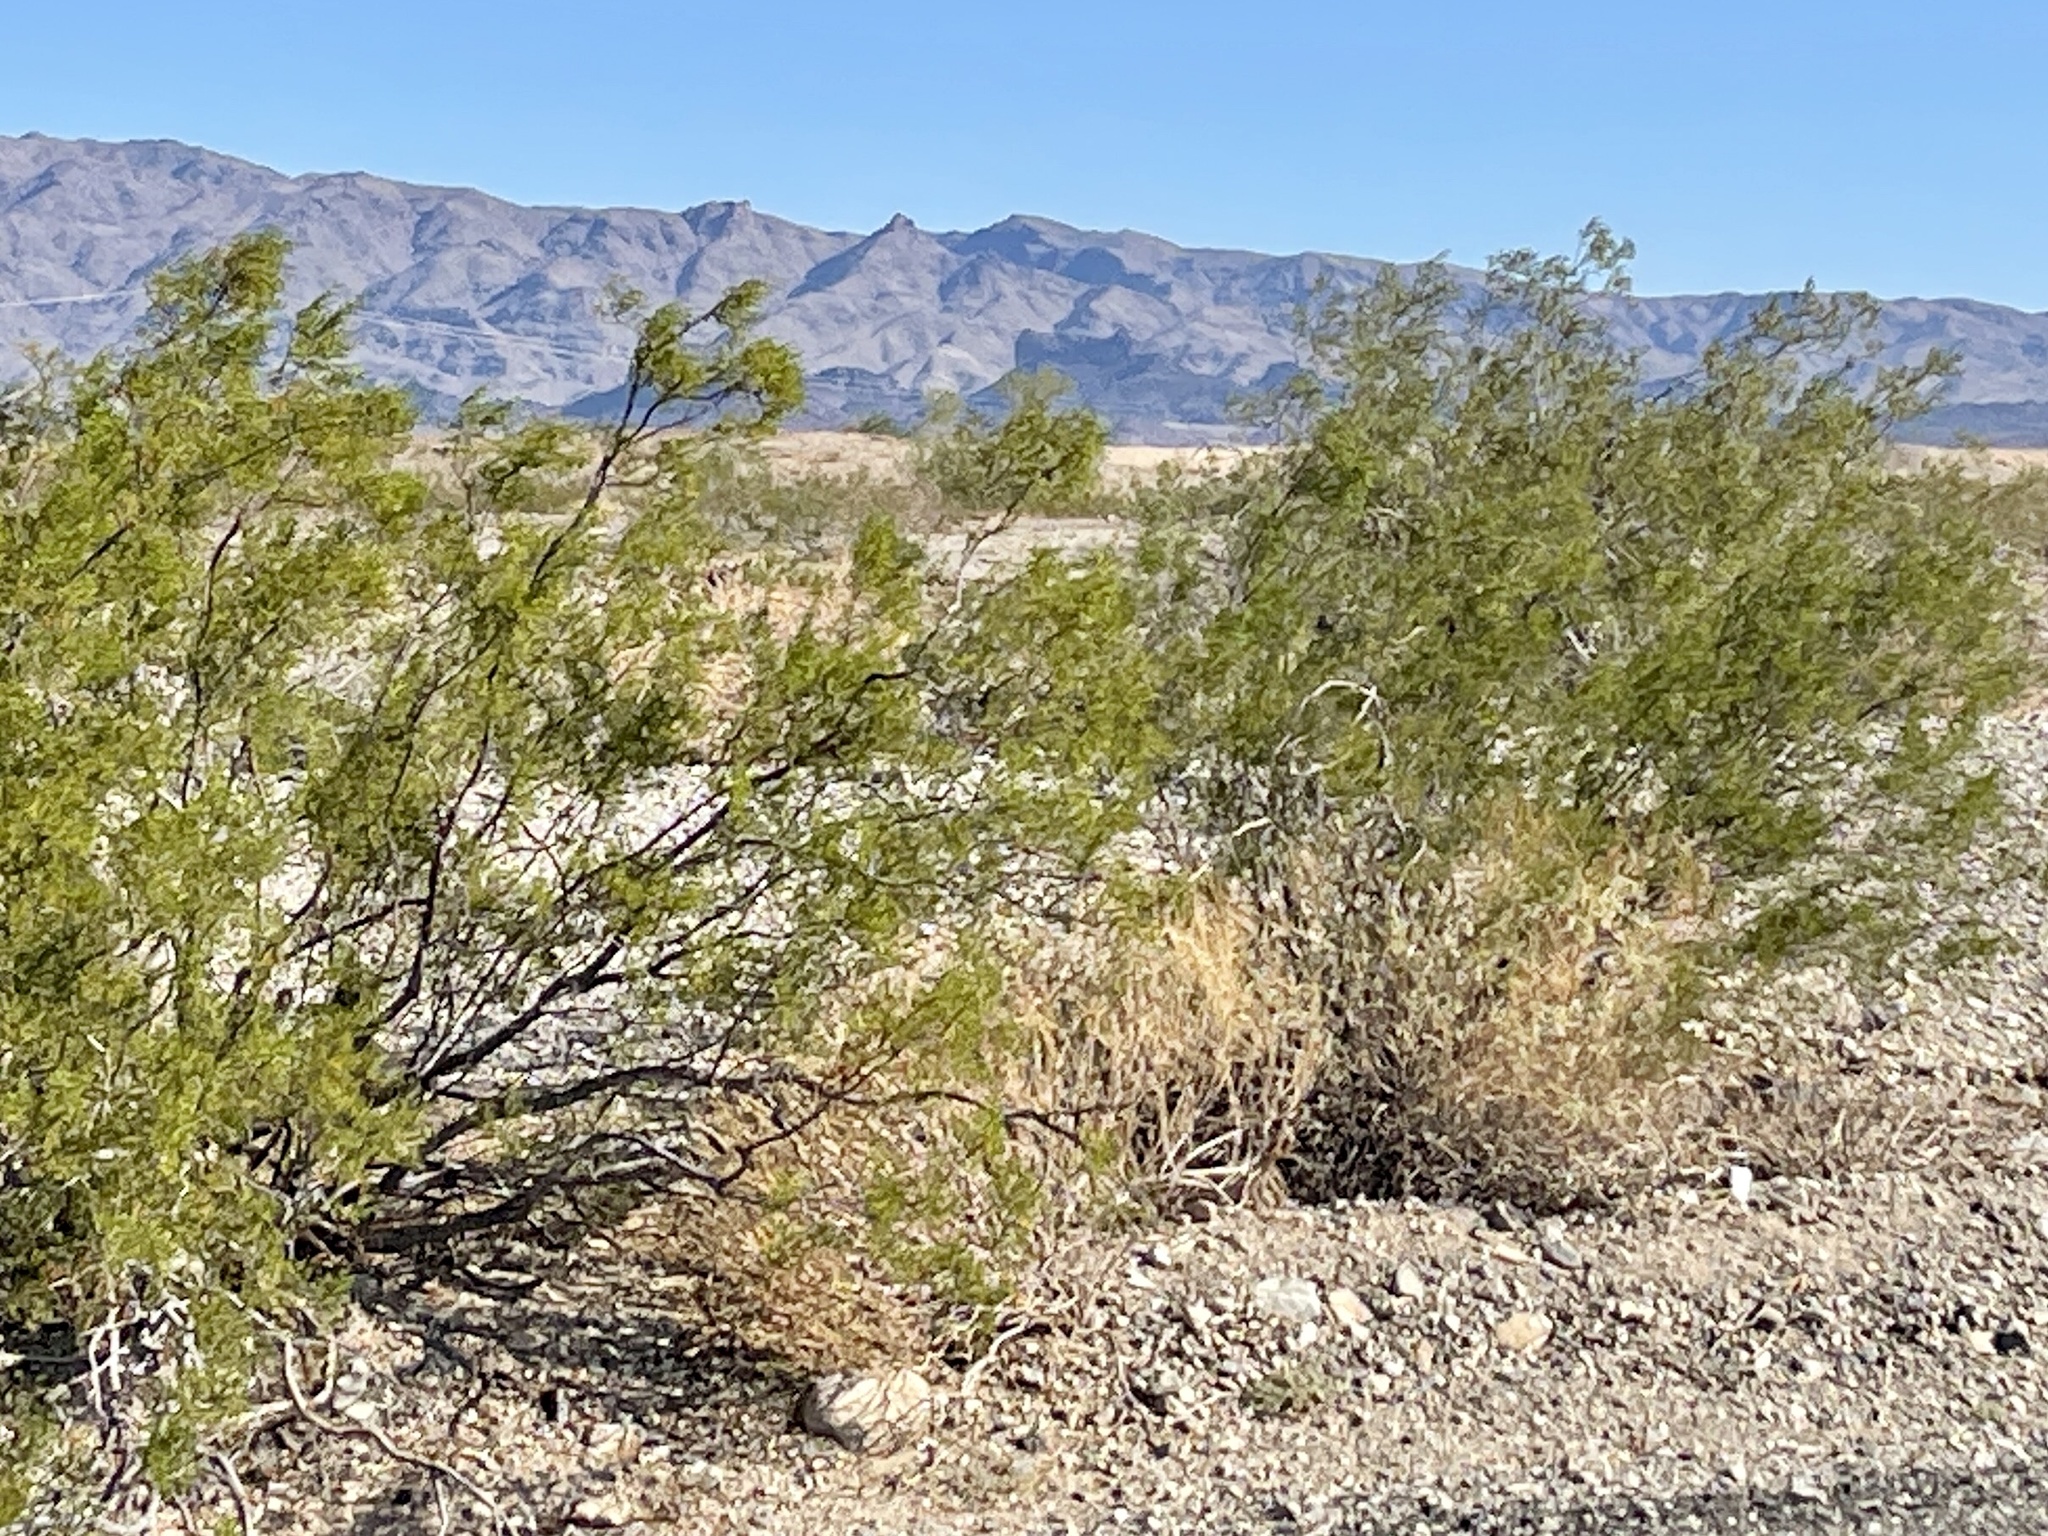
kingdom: Plantae
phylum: Tracheophyta
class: Magnoliopsida
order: Zygophyllales
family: Zygophyllaceae
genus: Larrea
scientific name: Larrea tridentata
